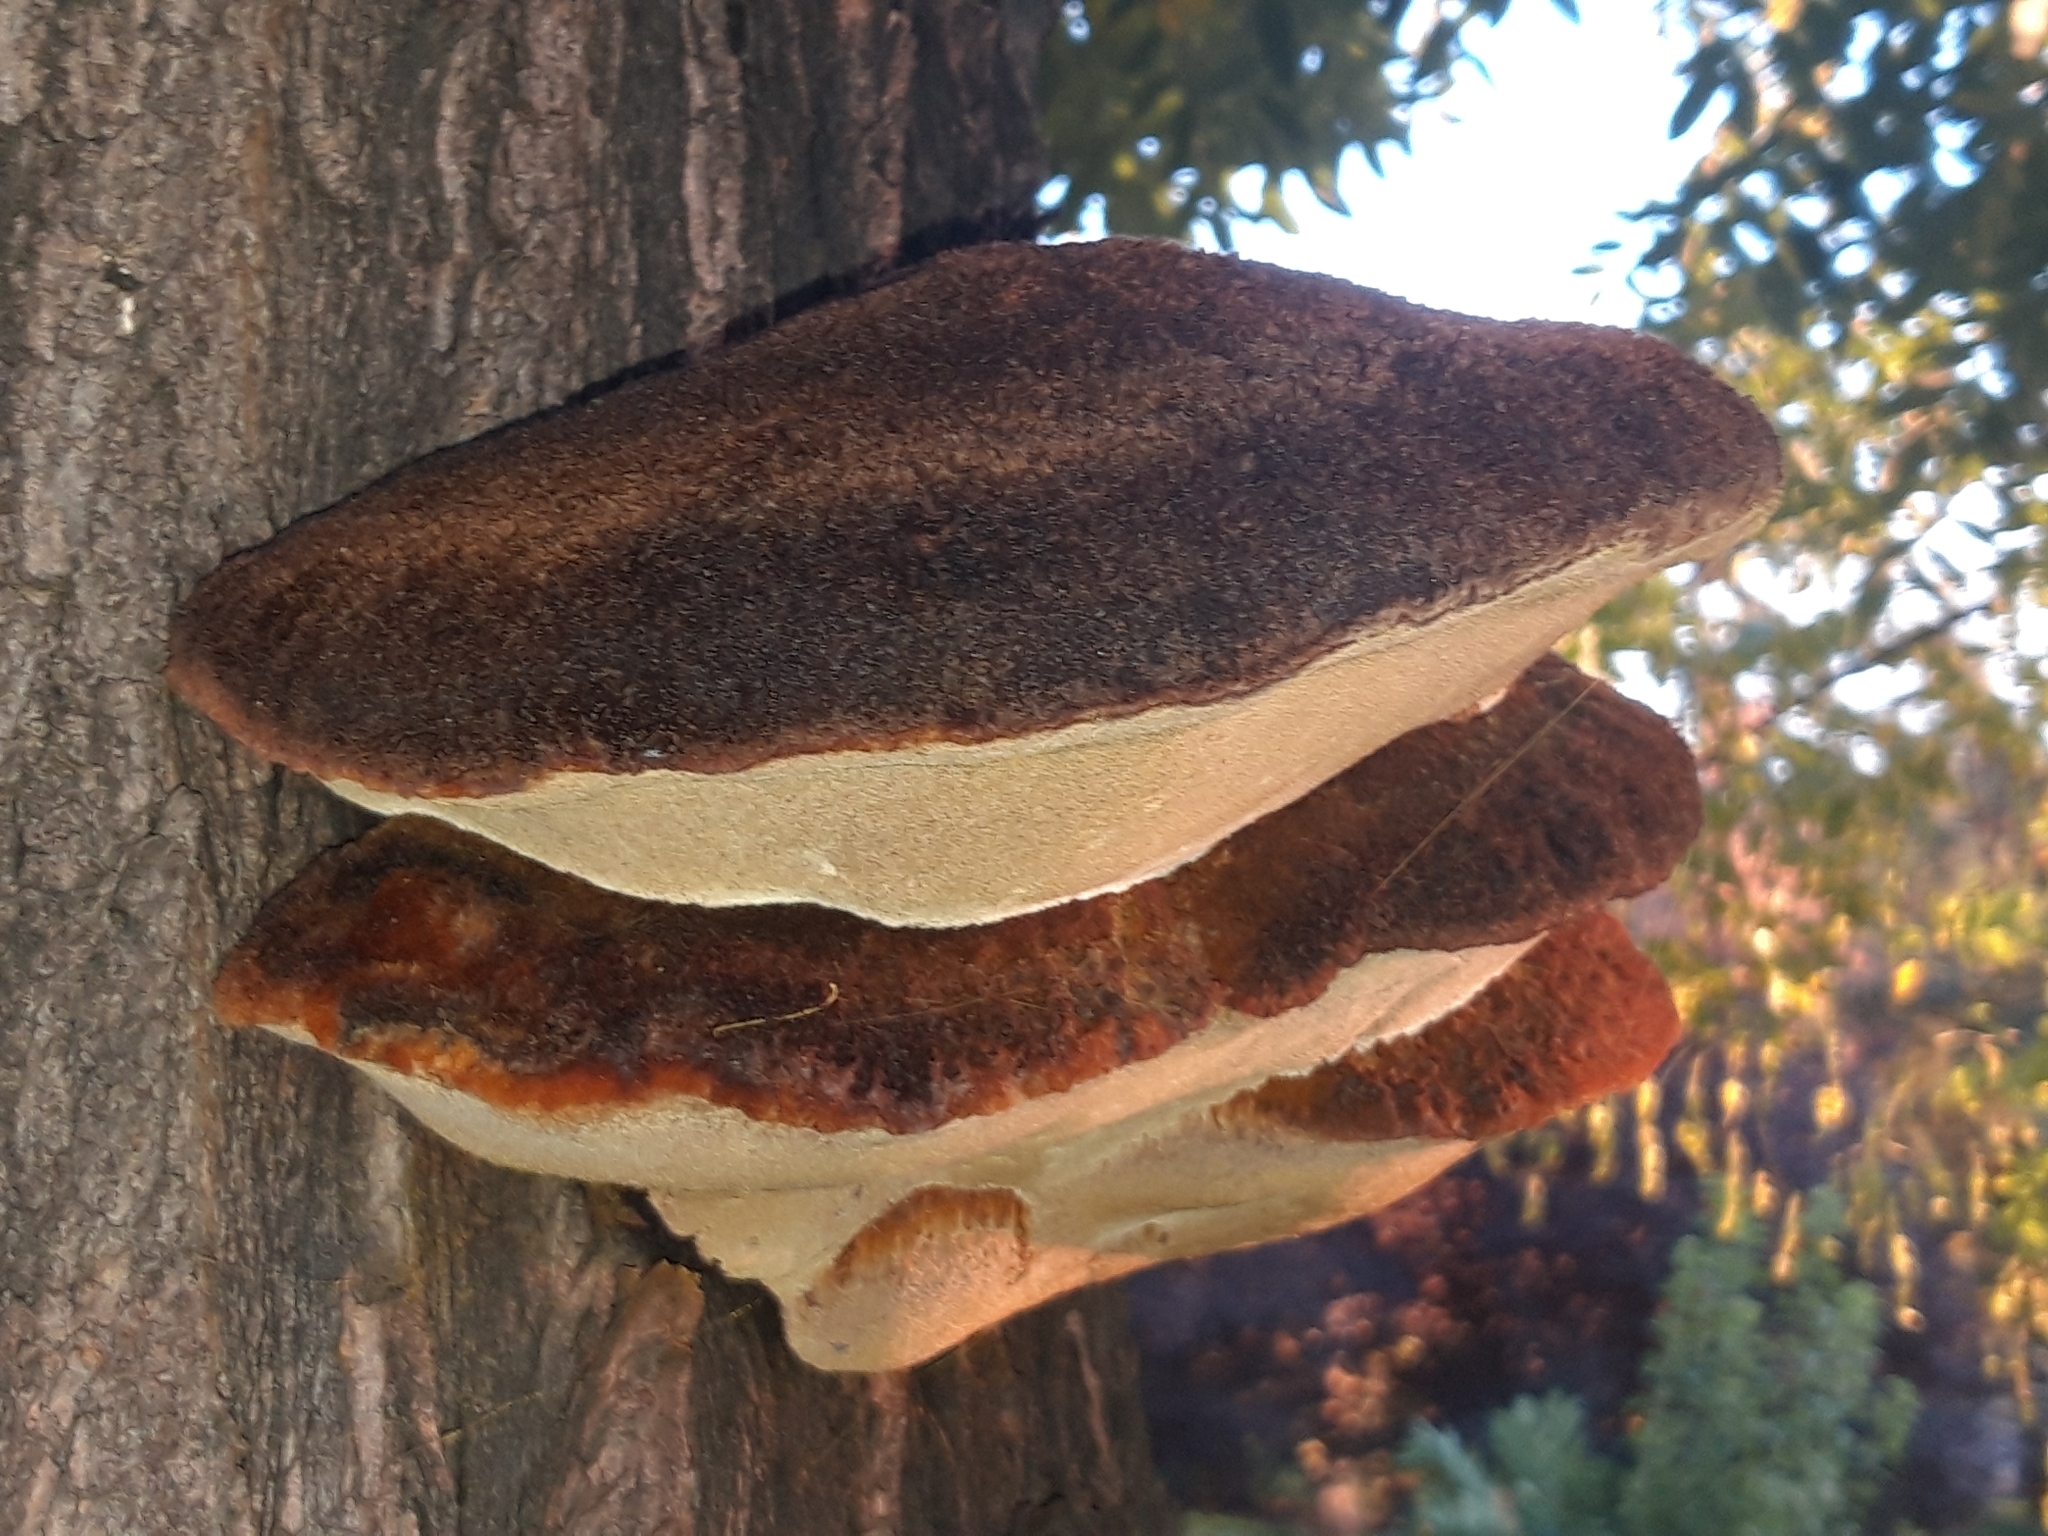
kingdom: Fungi
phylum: Basidiomycota
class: Agaricomycetes
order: Hymenochaetales
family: Hymenochaetaceae
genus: Inonotus
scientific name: Inonotus hispidus
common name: Shaggy bracket
